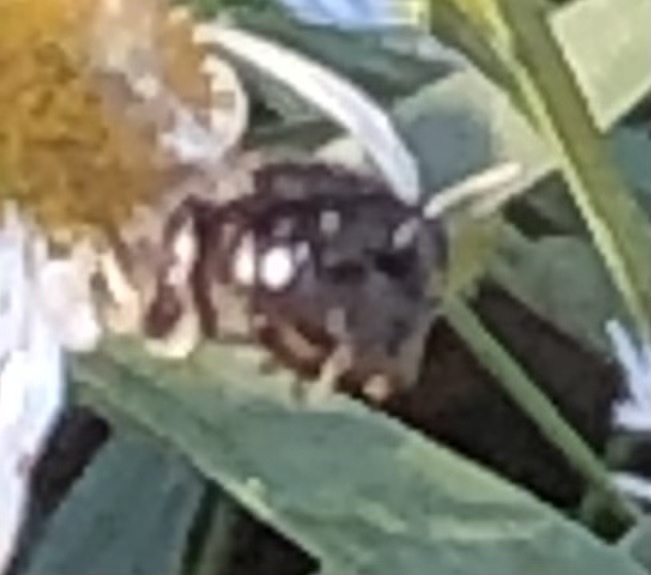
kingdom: Animalia
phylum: Arthropoda
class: Insecta
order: Hymenoptera
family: Megachilidae
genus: Megachile
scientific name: Megachile xylocopoides
